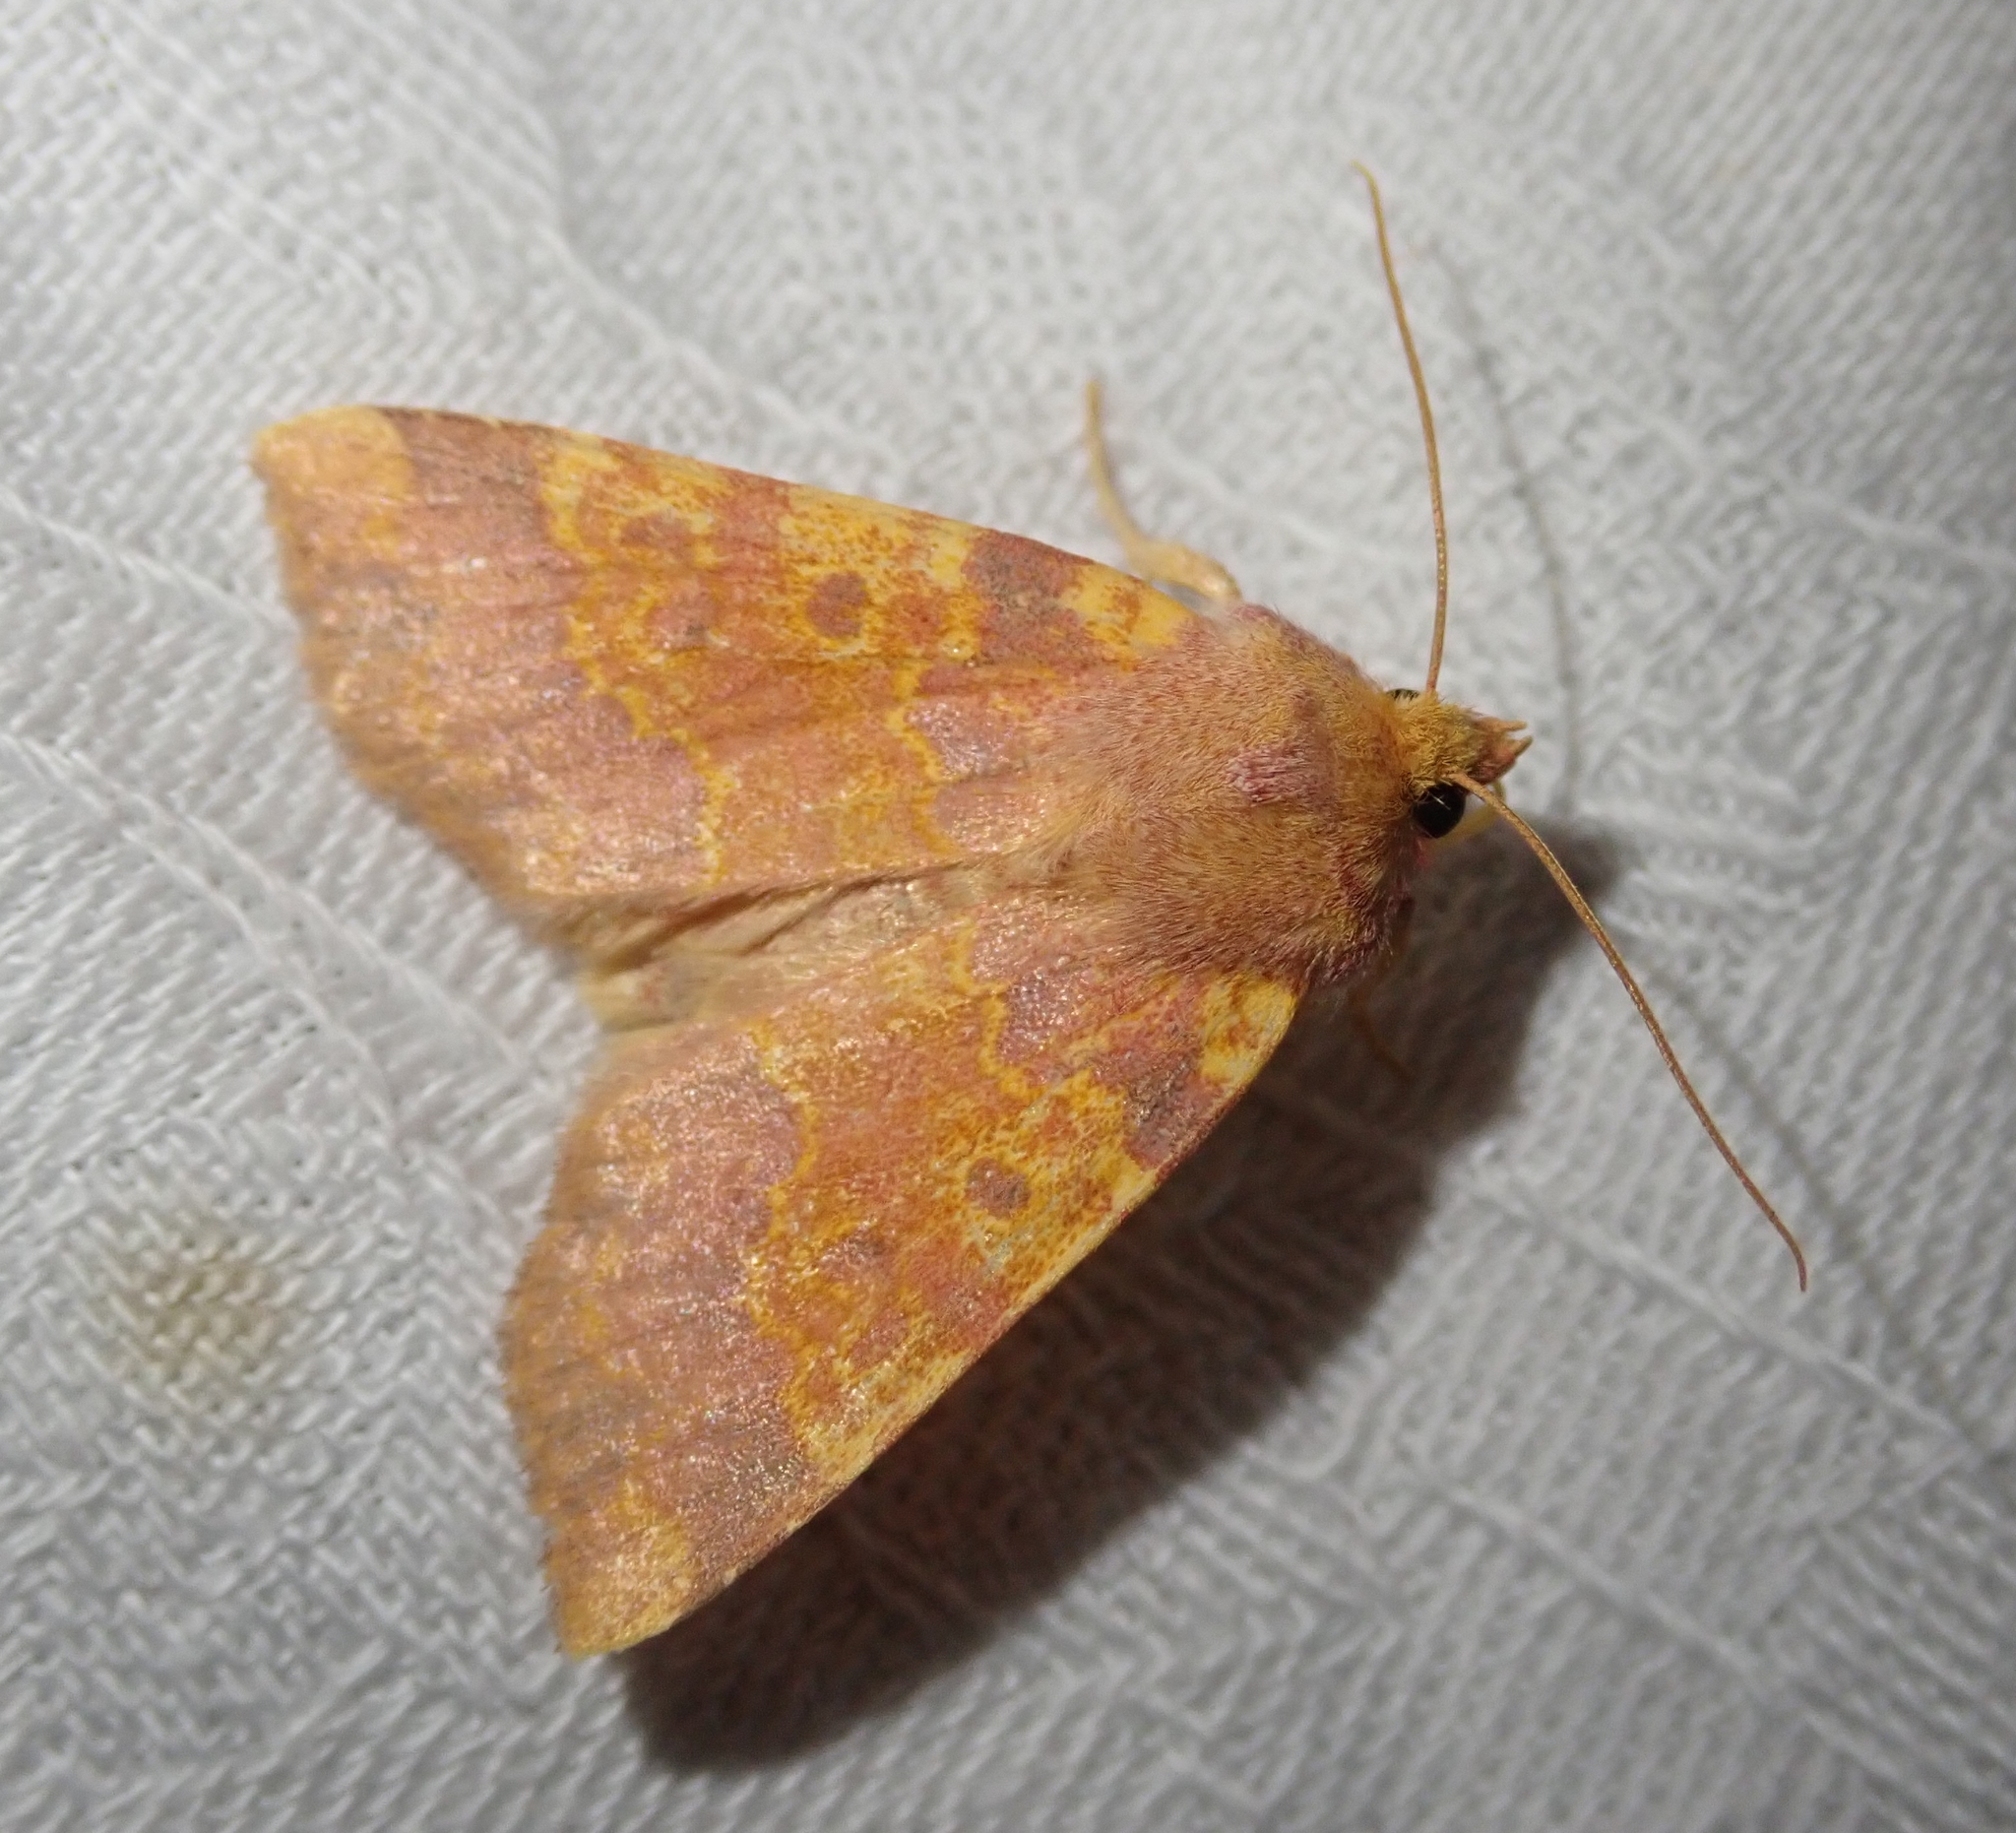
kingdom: Animalia
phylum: Arthropoda
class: Insecta
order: Lepidoptera
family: Noctuidae
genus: Tiliacea
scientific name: Tiliacea aurago
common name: Barred sallow
